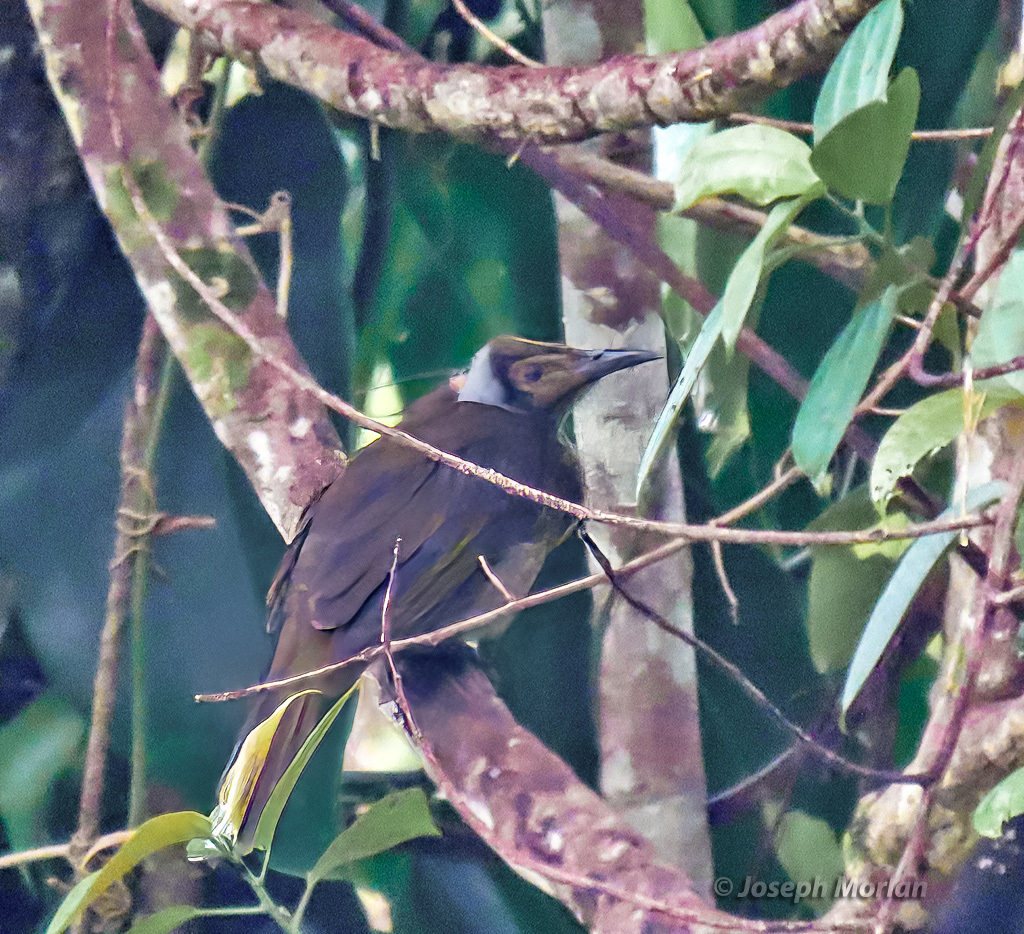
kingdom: Animalia
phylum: Chordata
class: Aves
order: Passeriformes
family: Meliphagidae
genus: Philemon
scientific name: Philemon subcorniculatus
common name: Seram friarbird
